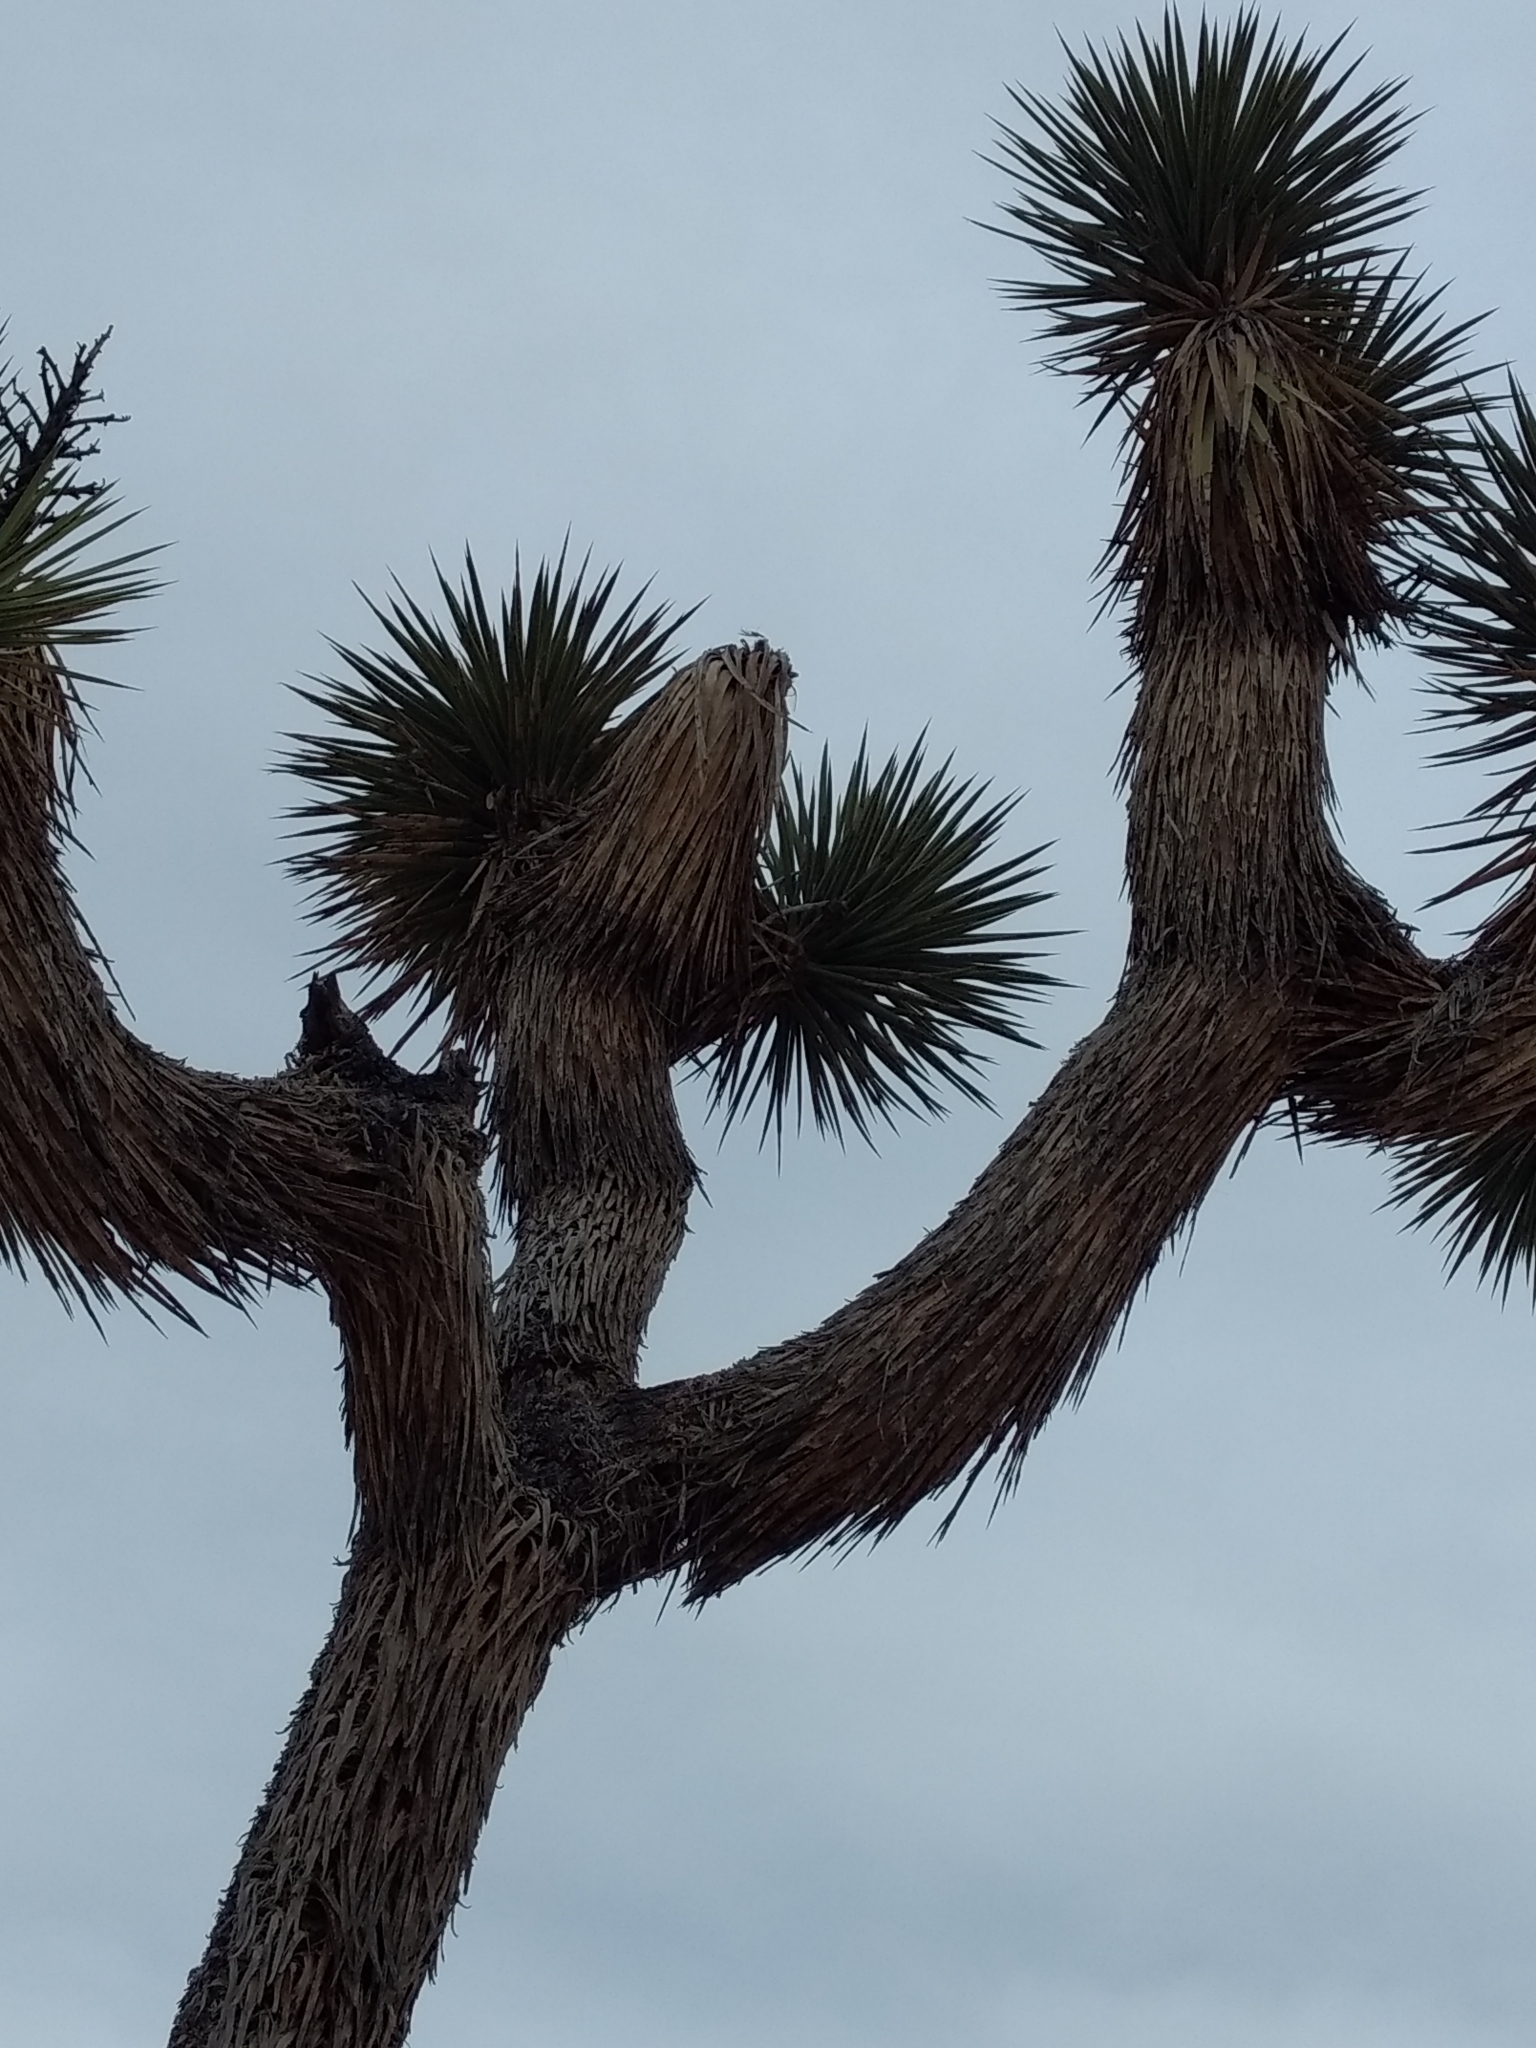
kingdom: Plantae
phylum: Tracheophyta
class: Liliopsida
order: Asparagales
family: Asparagaceae
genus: Yucca
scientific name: Yucca brevifolia
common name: Joshua tree
